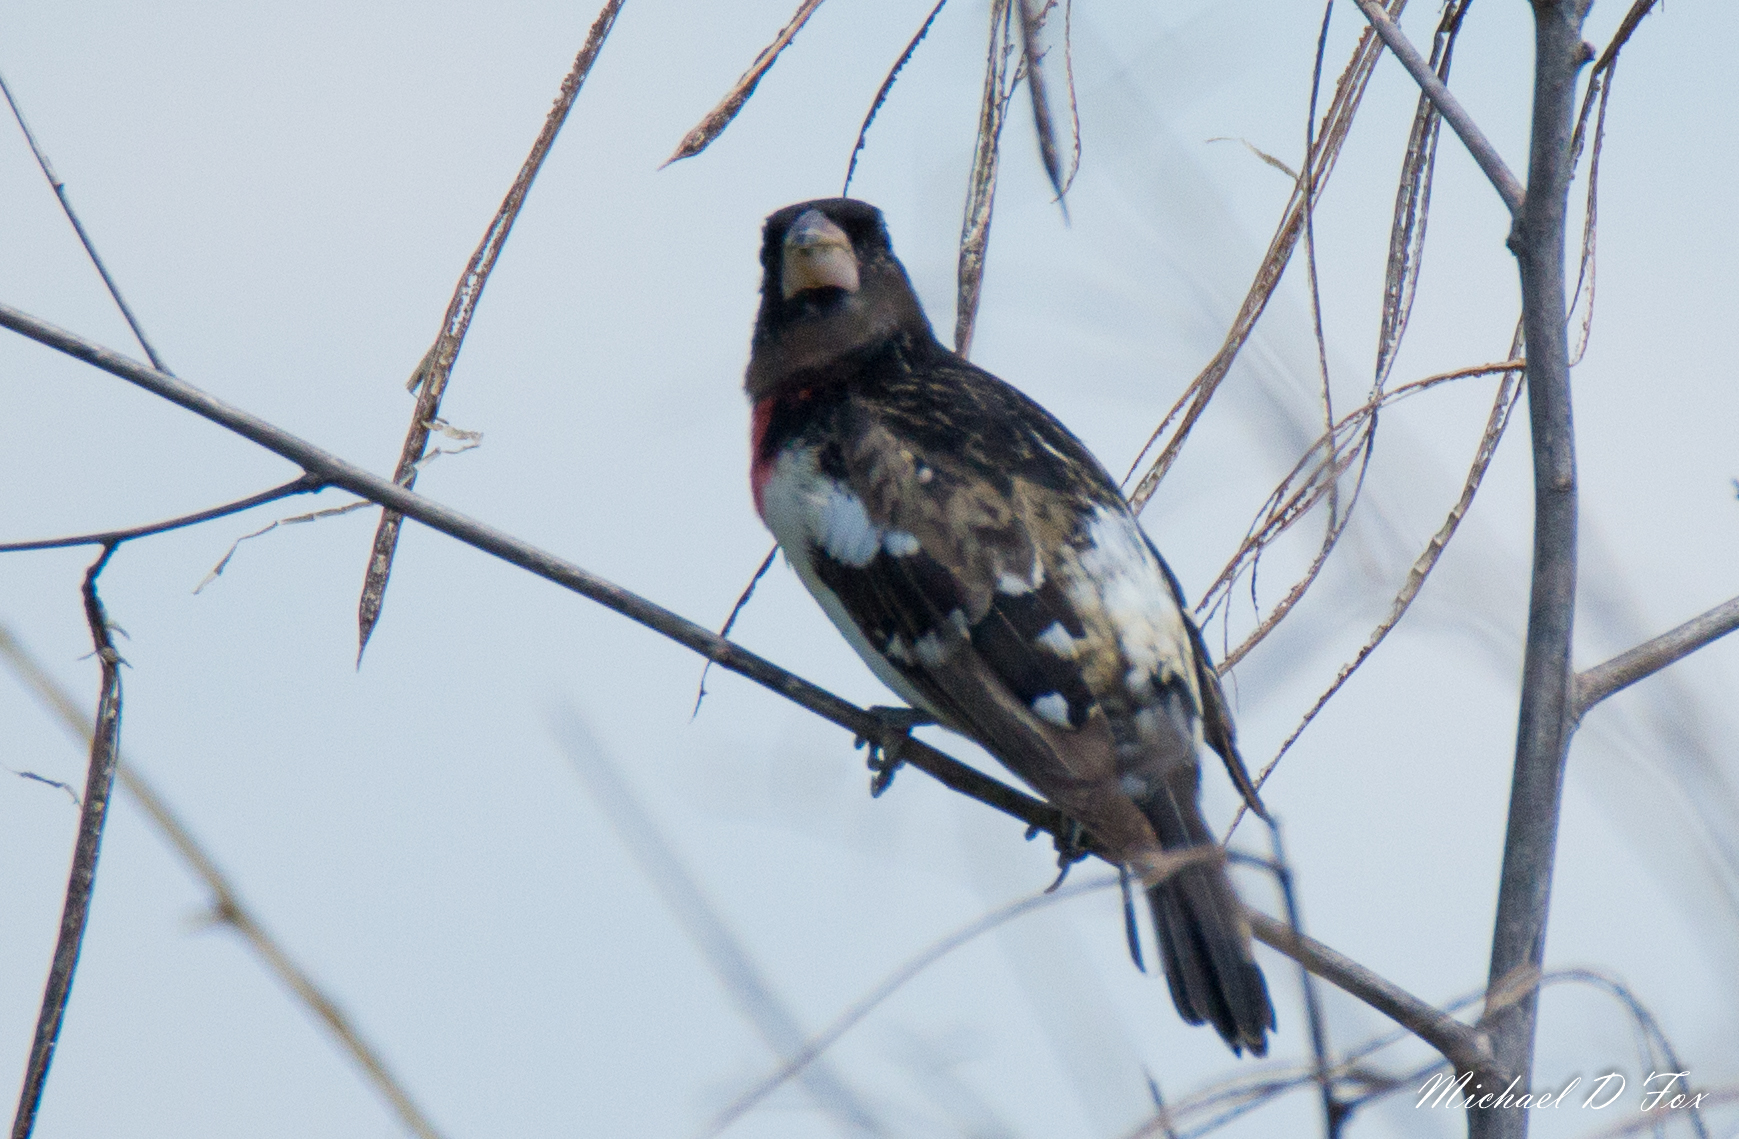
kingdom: Animalia
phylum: Chordata
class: Aves
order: Passeriformes
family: Cardinalidae
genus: Pheucticus
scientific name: Pheucticus ludovicianus
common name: Rose-breasted grosbeak
